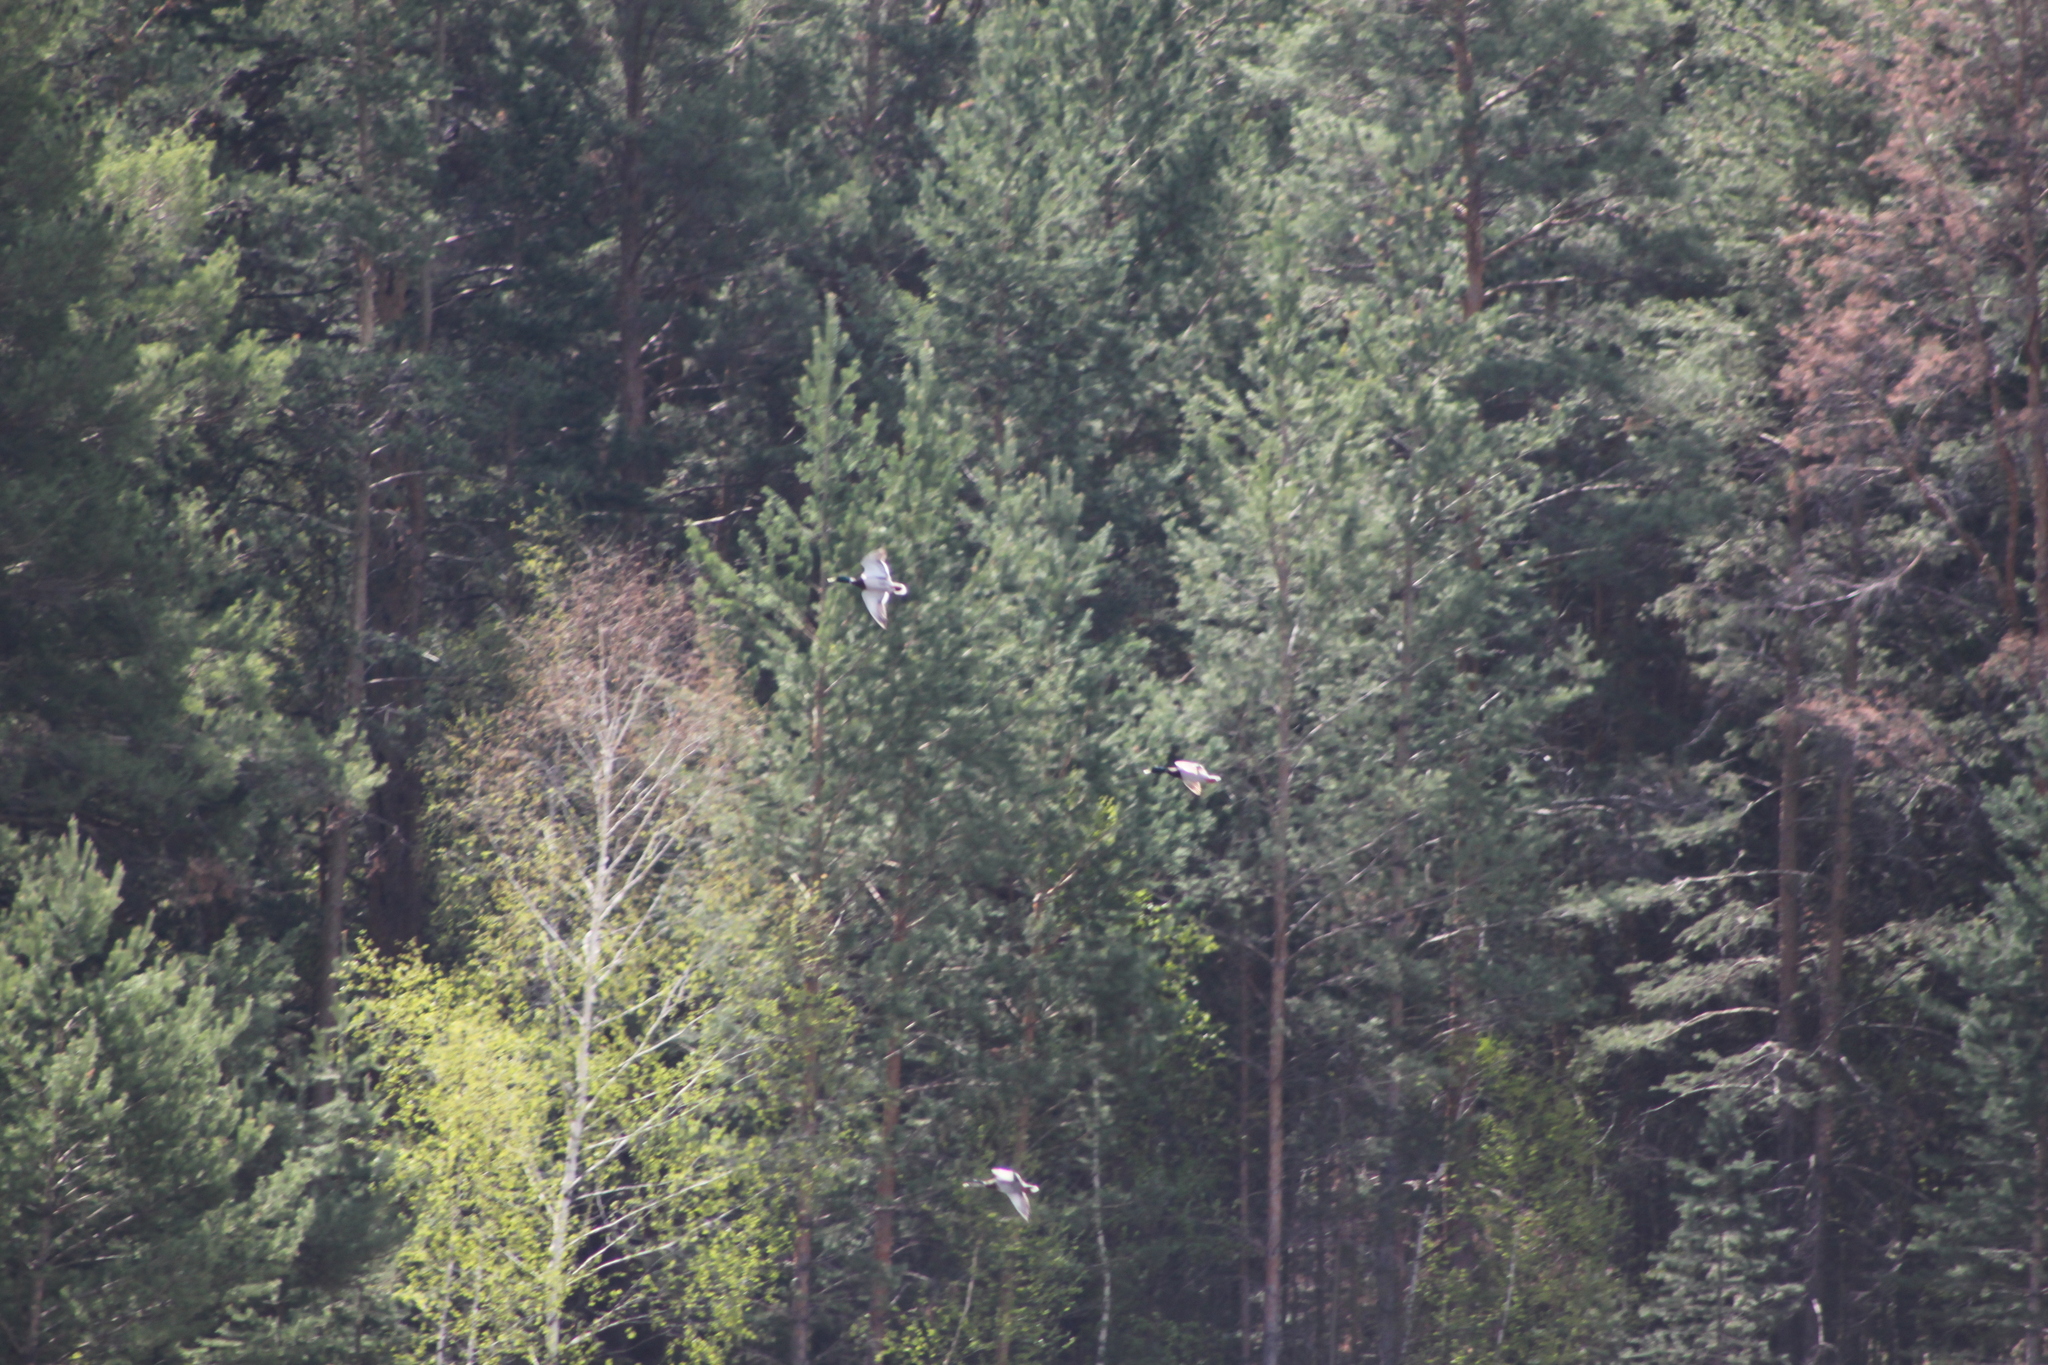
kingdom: Animalia
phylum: Chordata
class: Aves
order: Anseriformes
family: Anatidae
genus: Anas
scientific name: Anas platyrhynchos
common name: Mallard
